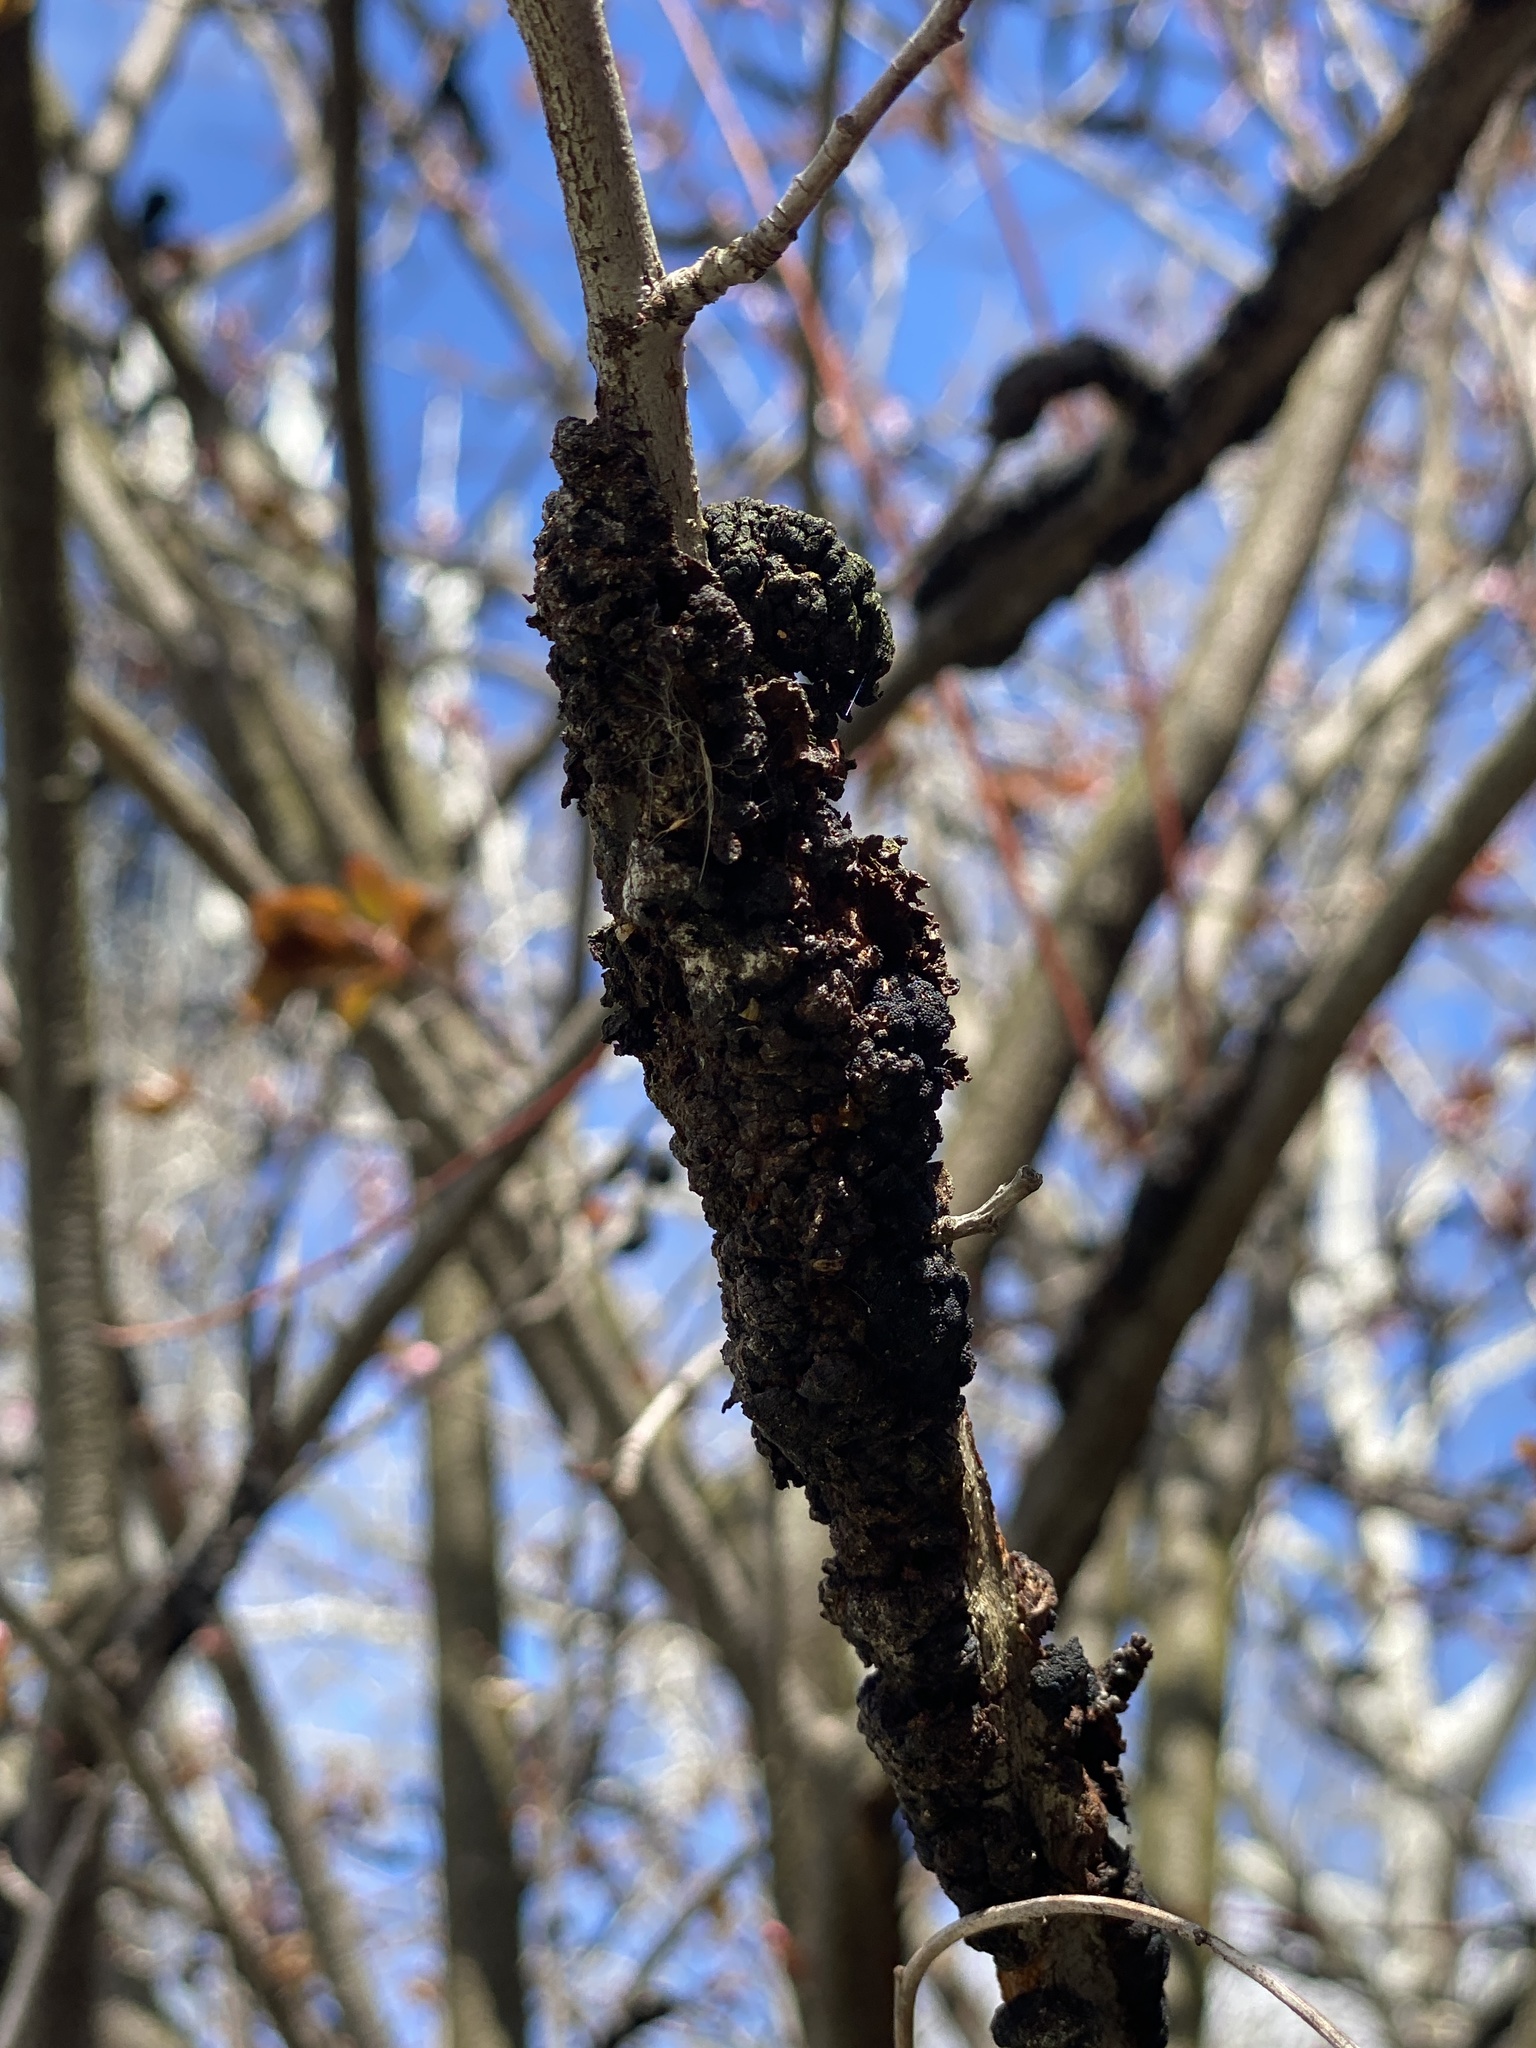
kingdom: Fungi
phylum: Ascomycota
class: Dothideomycetes
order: Venturiales
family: Venturiaceae
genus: Apiosporina
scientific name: Apiosporina morbosa
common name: Black knot
